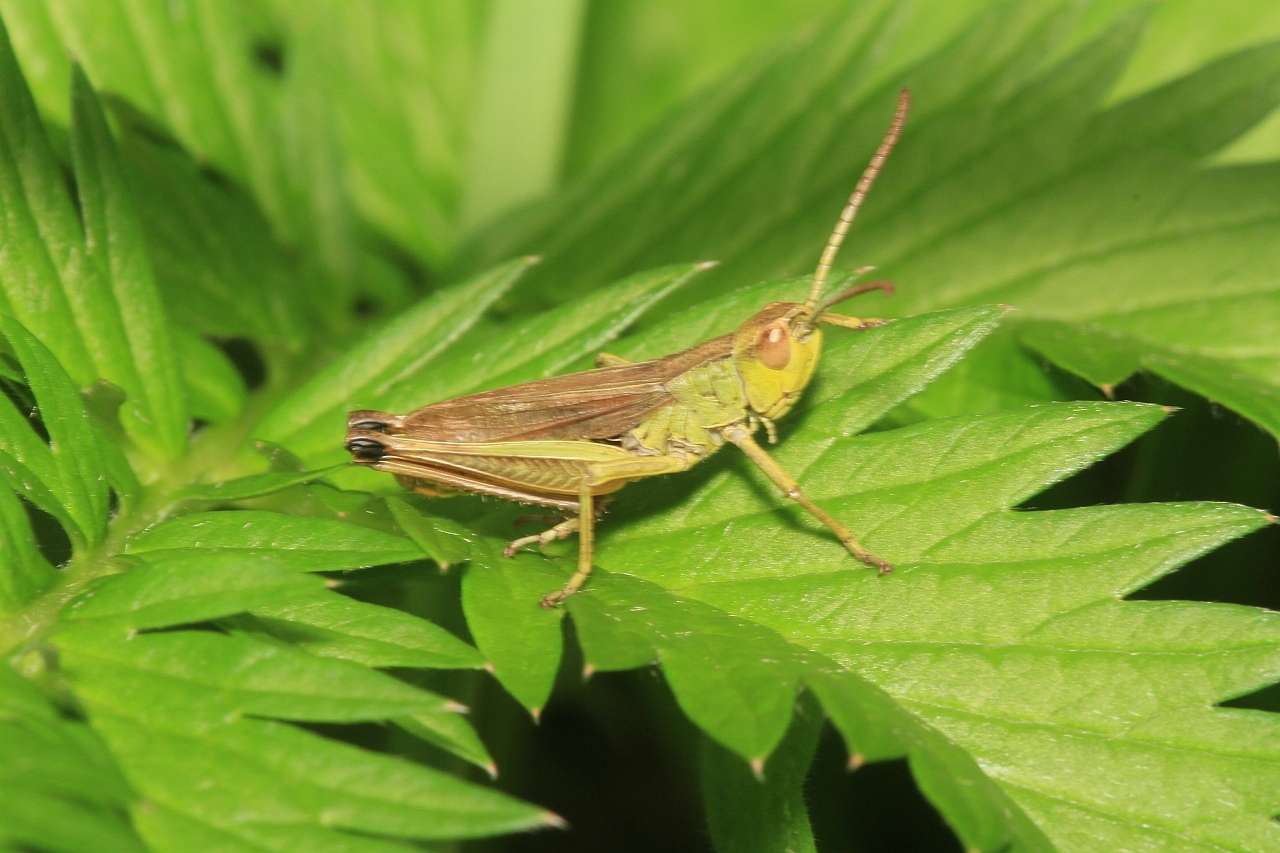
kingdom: Animalia
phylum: Arthropoda
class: Insecta
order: Orthoptera
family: Acrididae
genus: Pseudochorthippus
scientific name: Pseudochorthippus parallelus
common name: Meadow grasshopper
